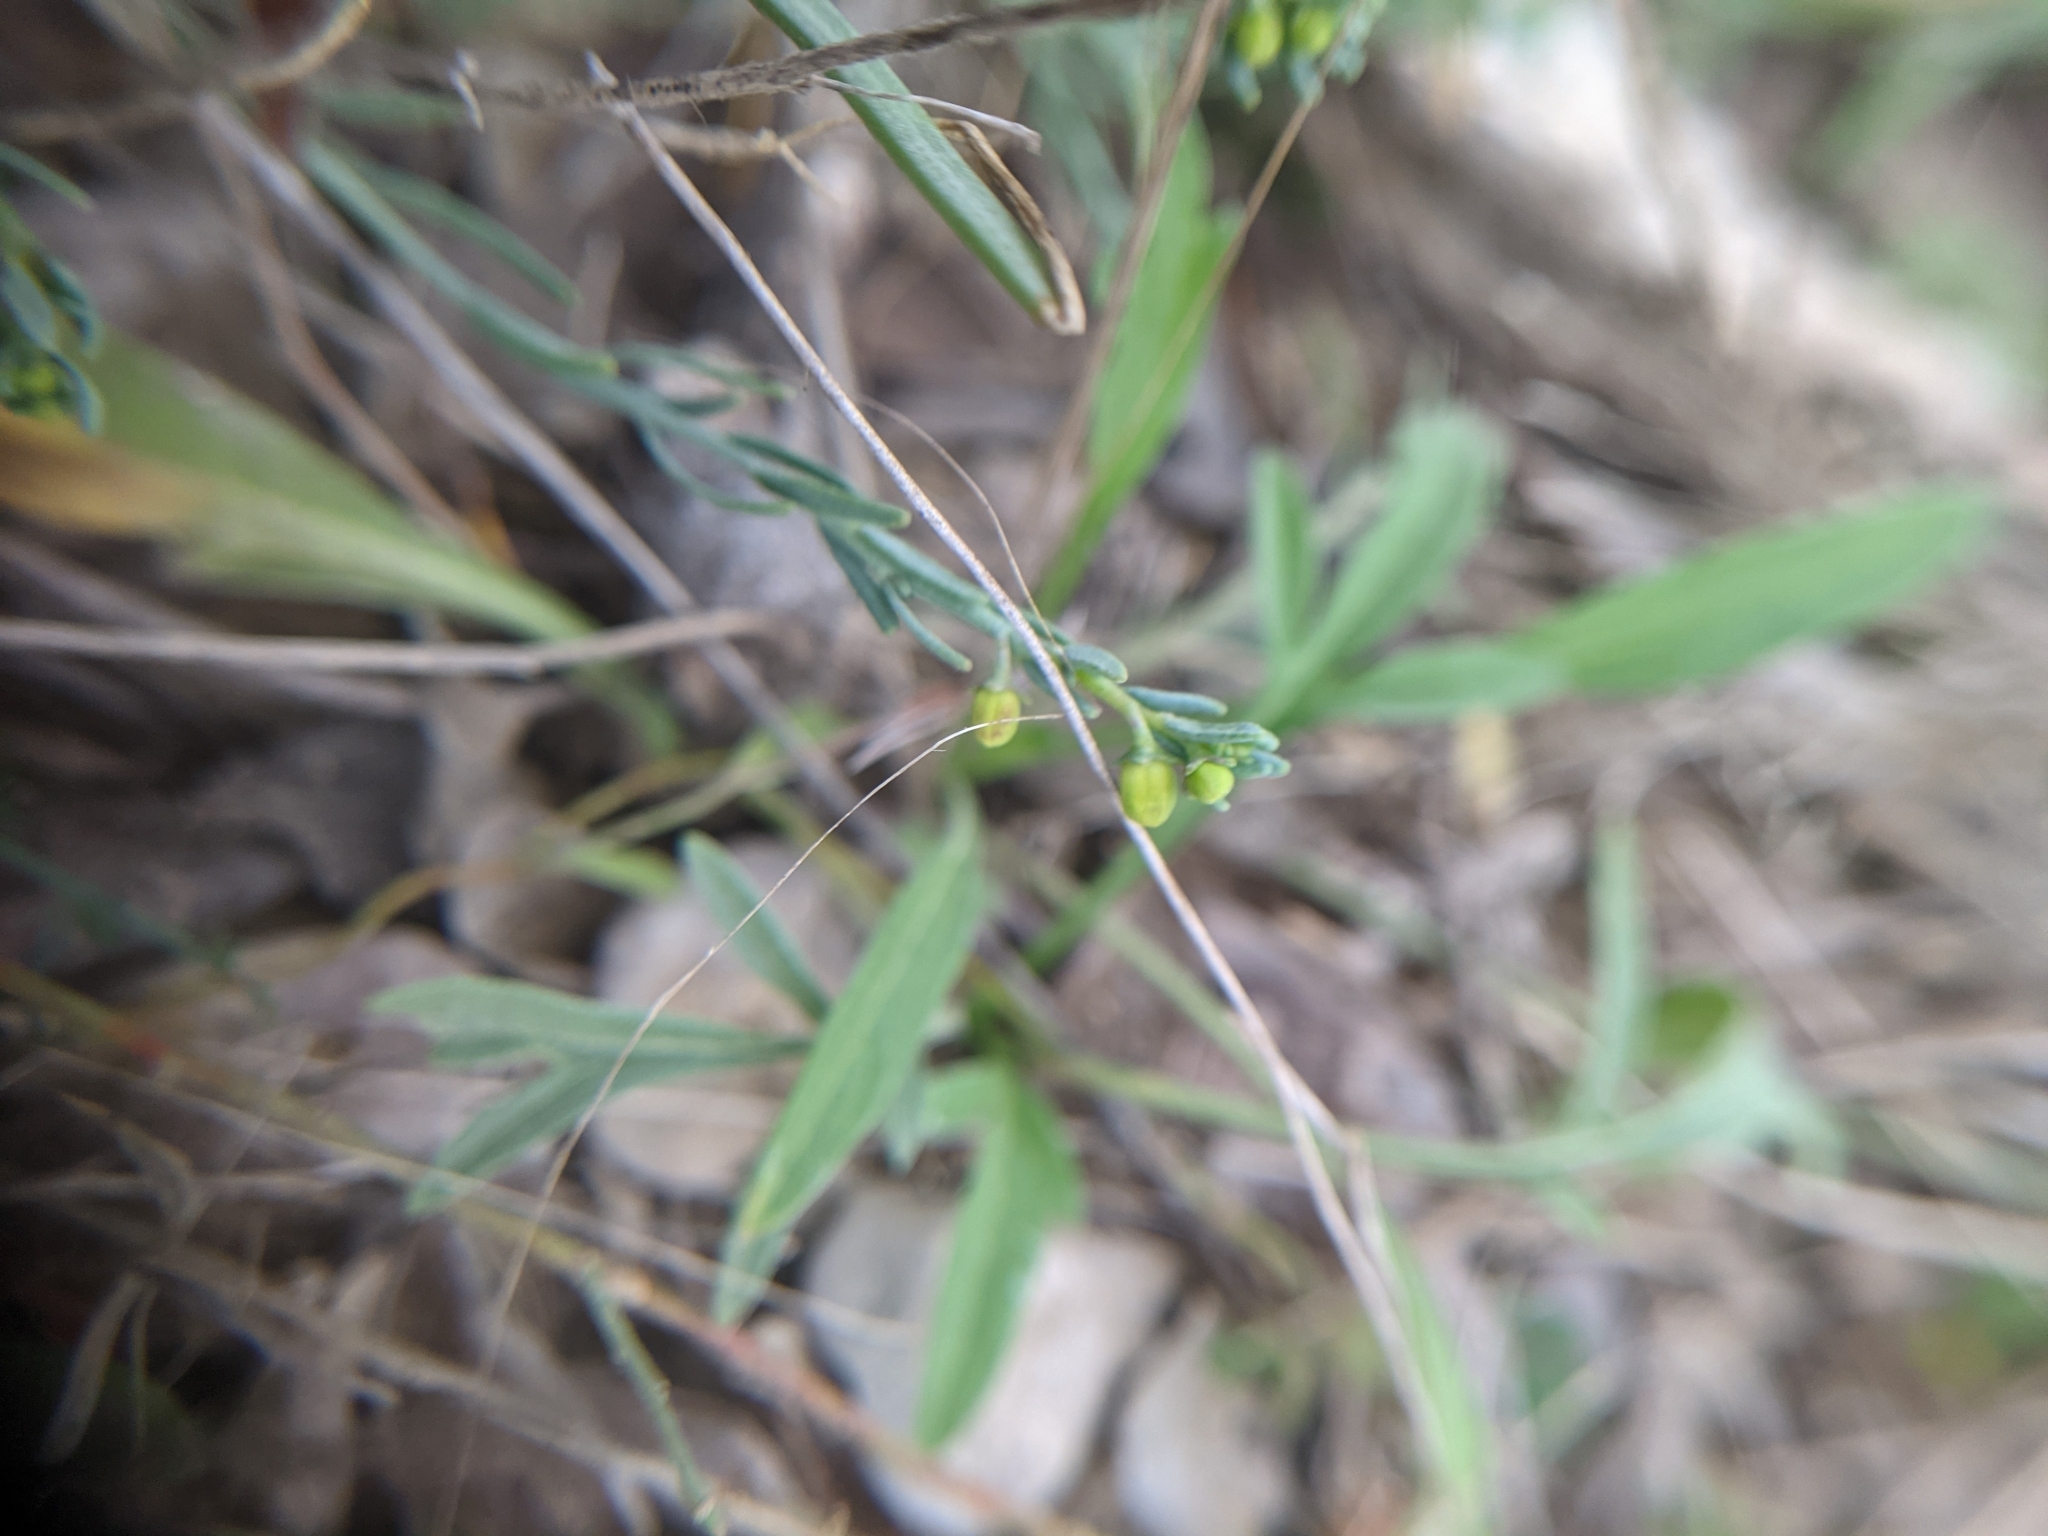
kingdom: Plantae
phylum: Tracheophyta
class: Magnoliopsida
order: Sapindales
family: Rutaceae
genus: Thamnosma
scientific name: Thamnosma texana
